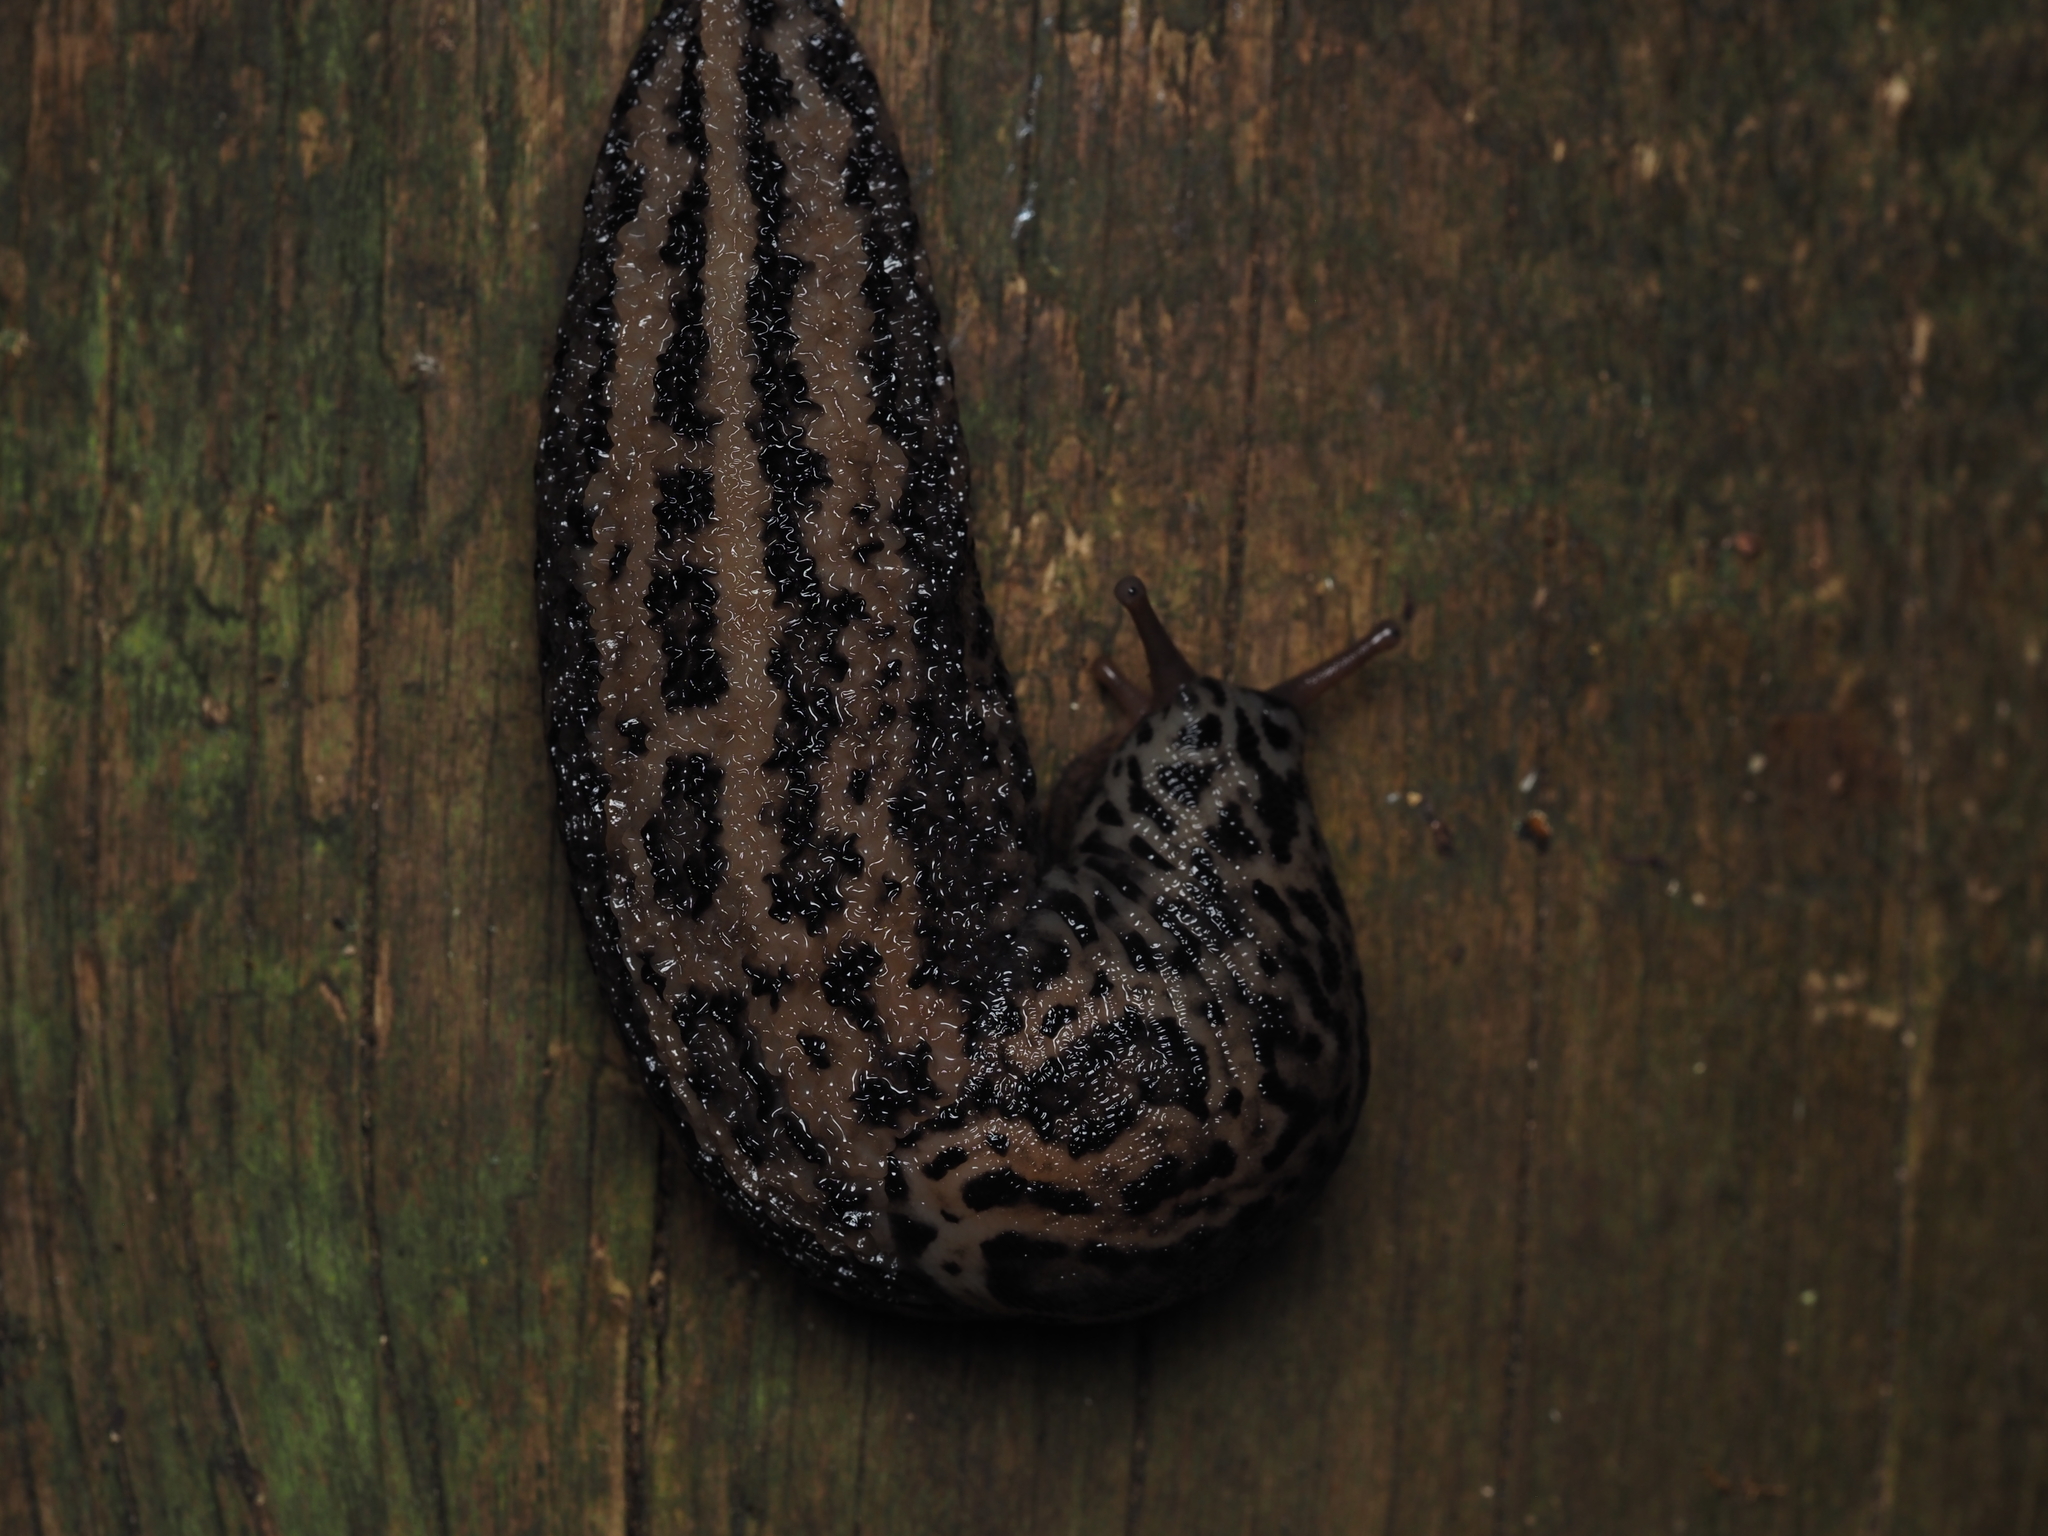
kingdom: Animalia
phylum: Mollusca
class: Gastropoda
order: Stylommatophora
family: Limacidae
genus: Limax
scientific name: Limax maximus
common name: Great grey slug
